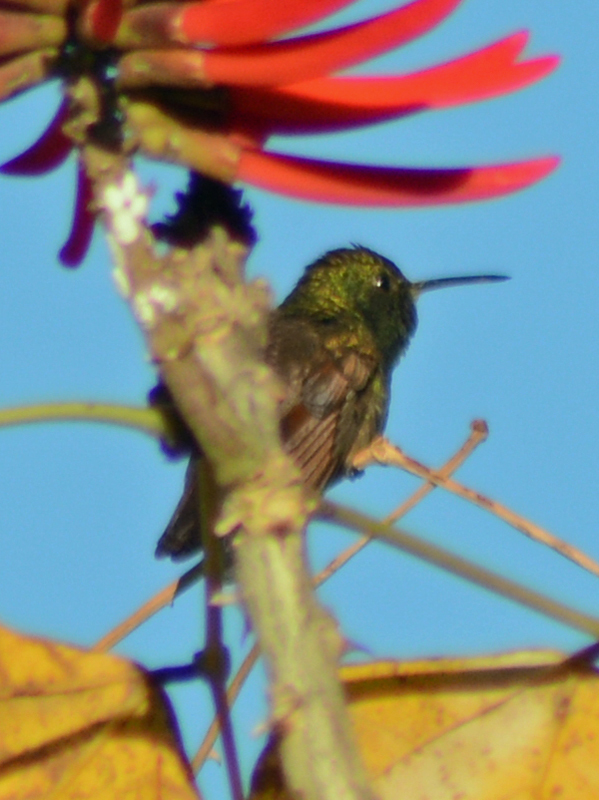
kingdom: Animalia
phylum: Chordata
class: Aves
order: Apodiformes
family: Trochilidae
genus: Saucerottia
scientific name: Saucerottia beryllina
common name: Berylline hummingbird
